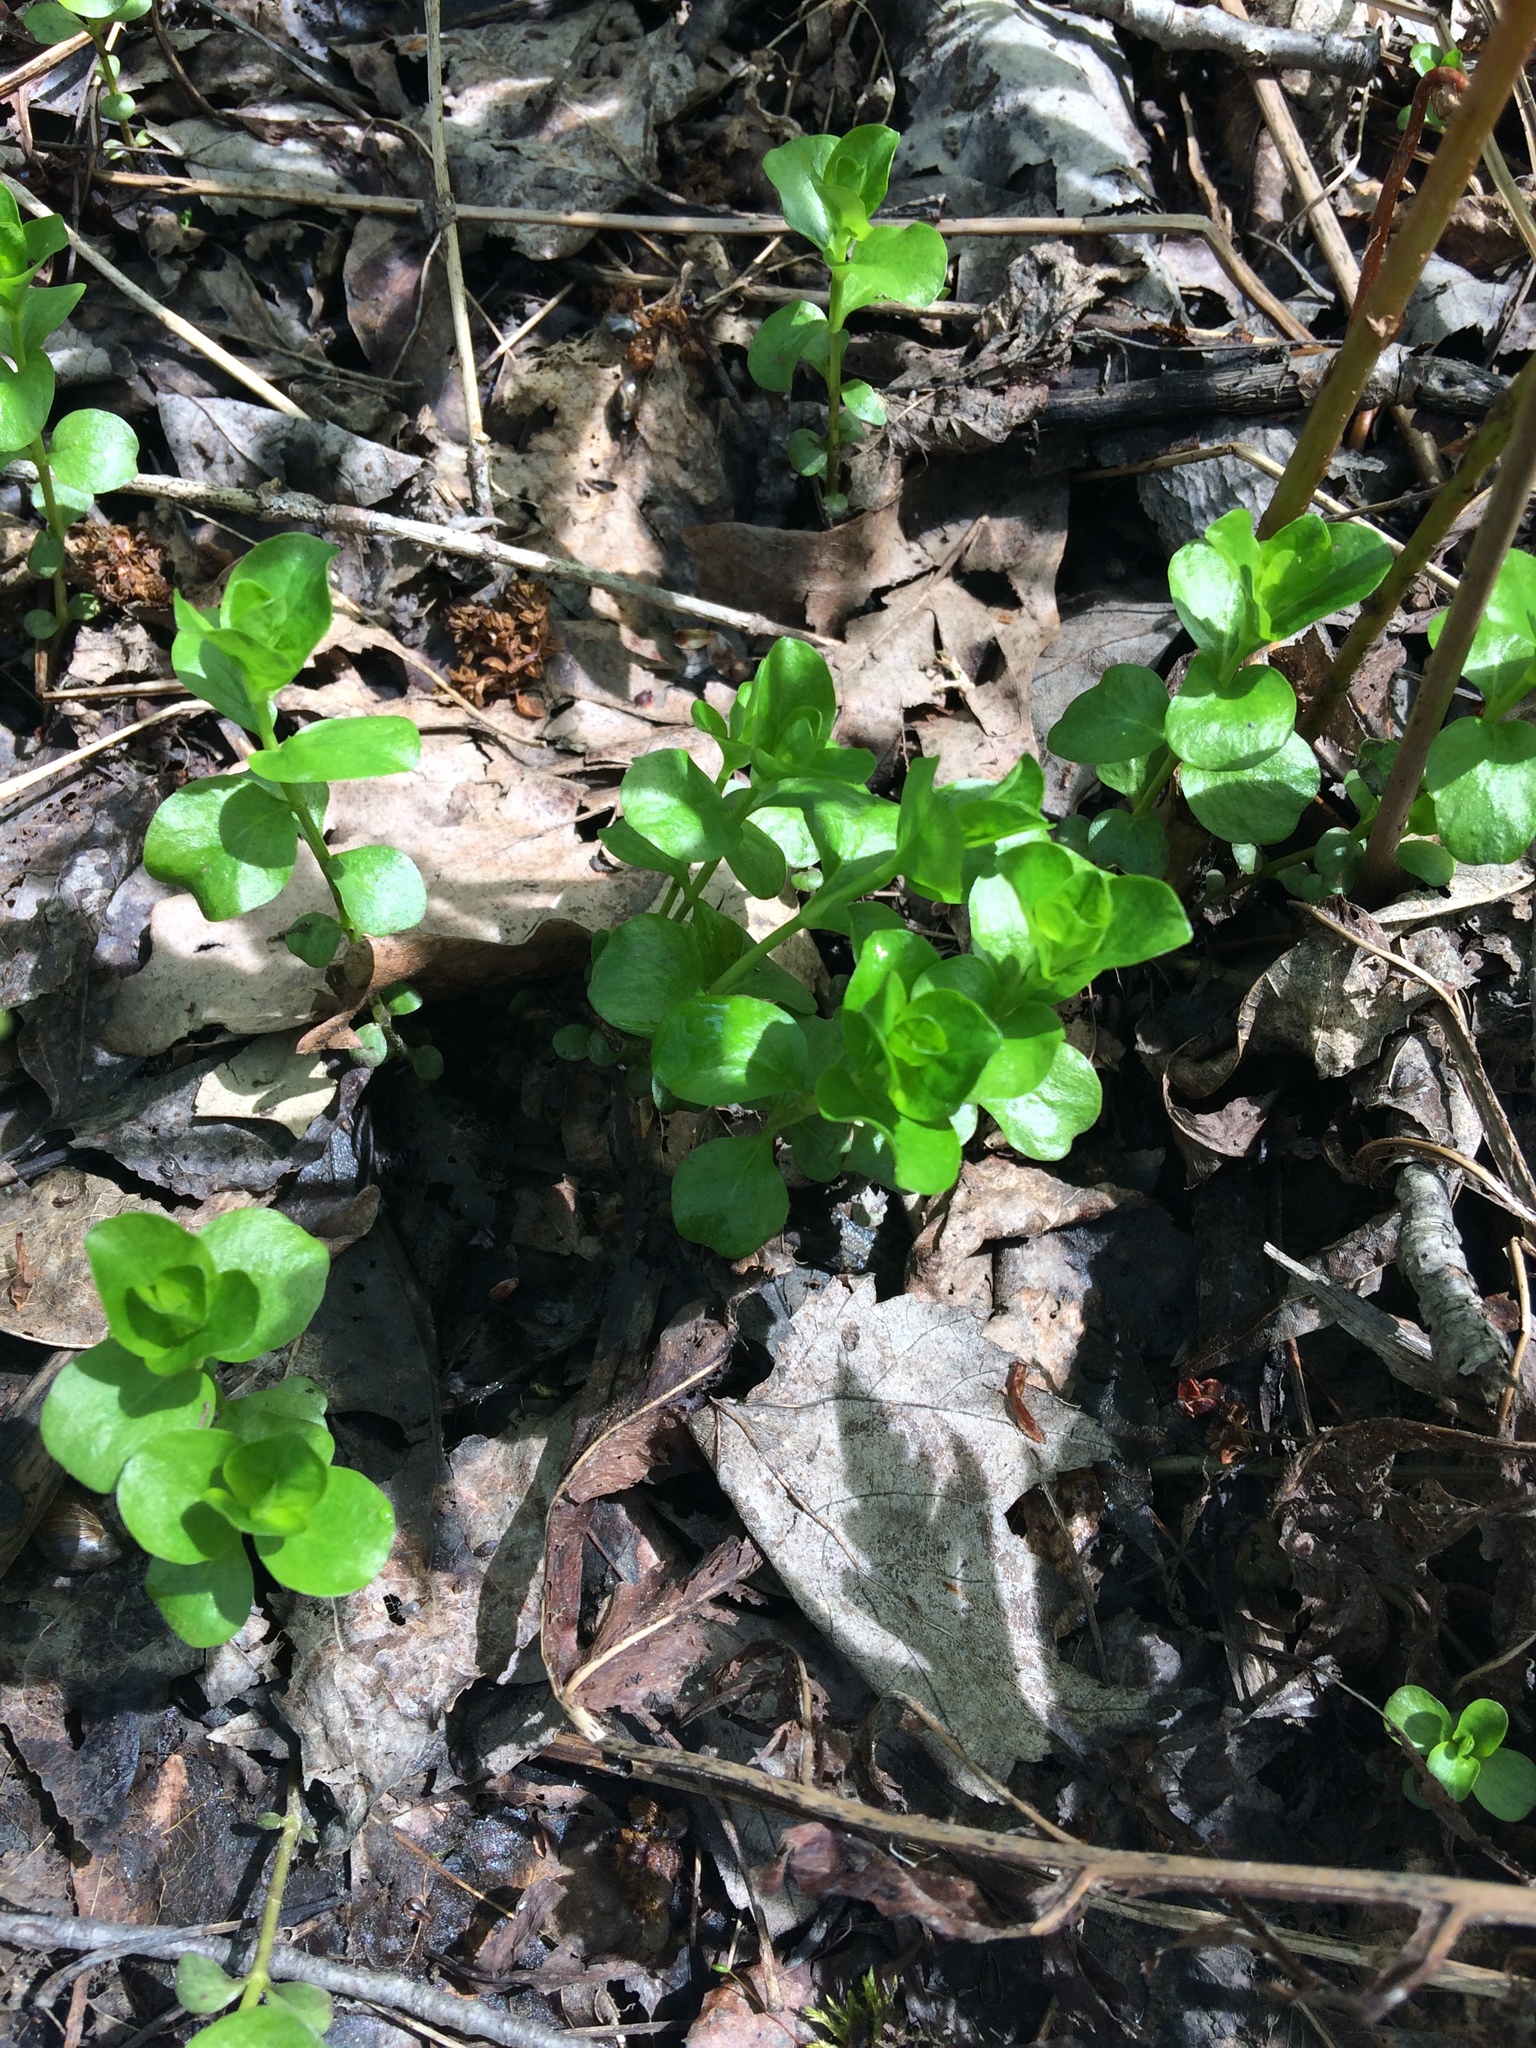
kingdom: Plantae
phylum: Tracheophyta
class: Magnoliopsida
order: Ericales
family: Primulaceae
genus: Lysimachia
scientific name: Lysimachia nummularia
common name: Moneywort
